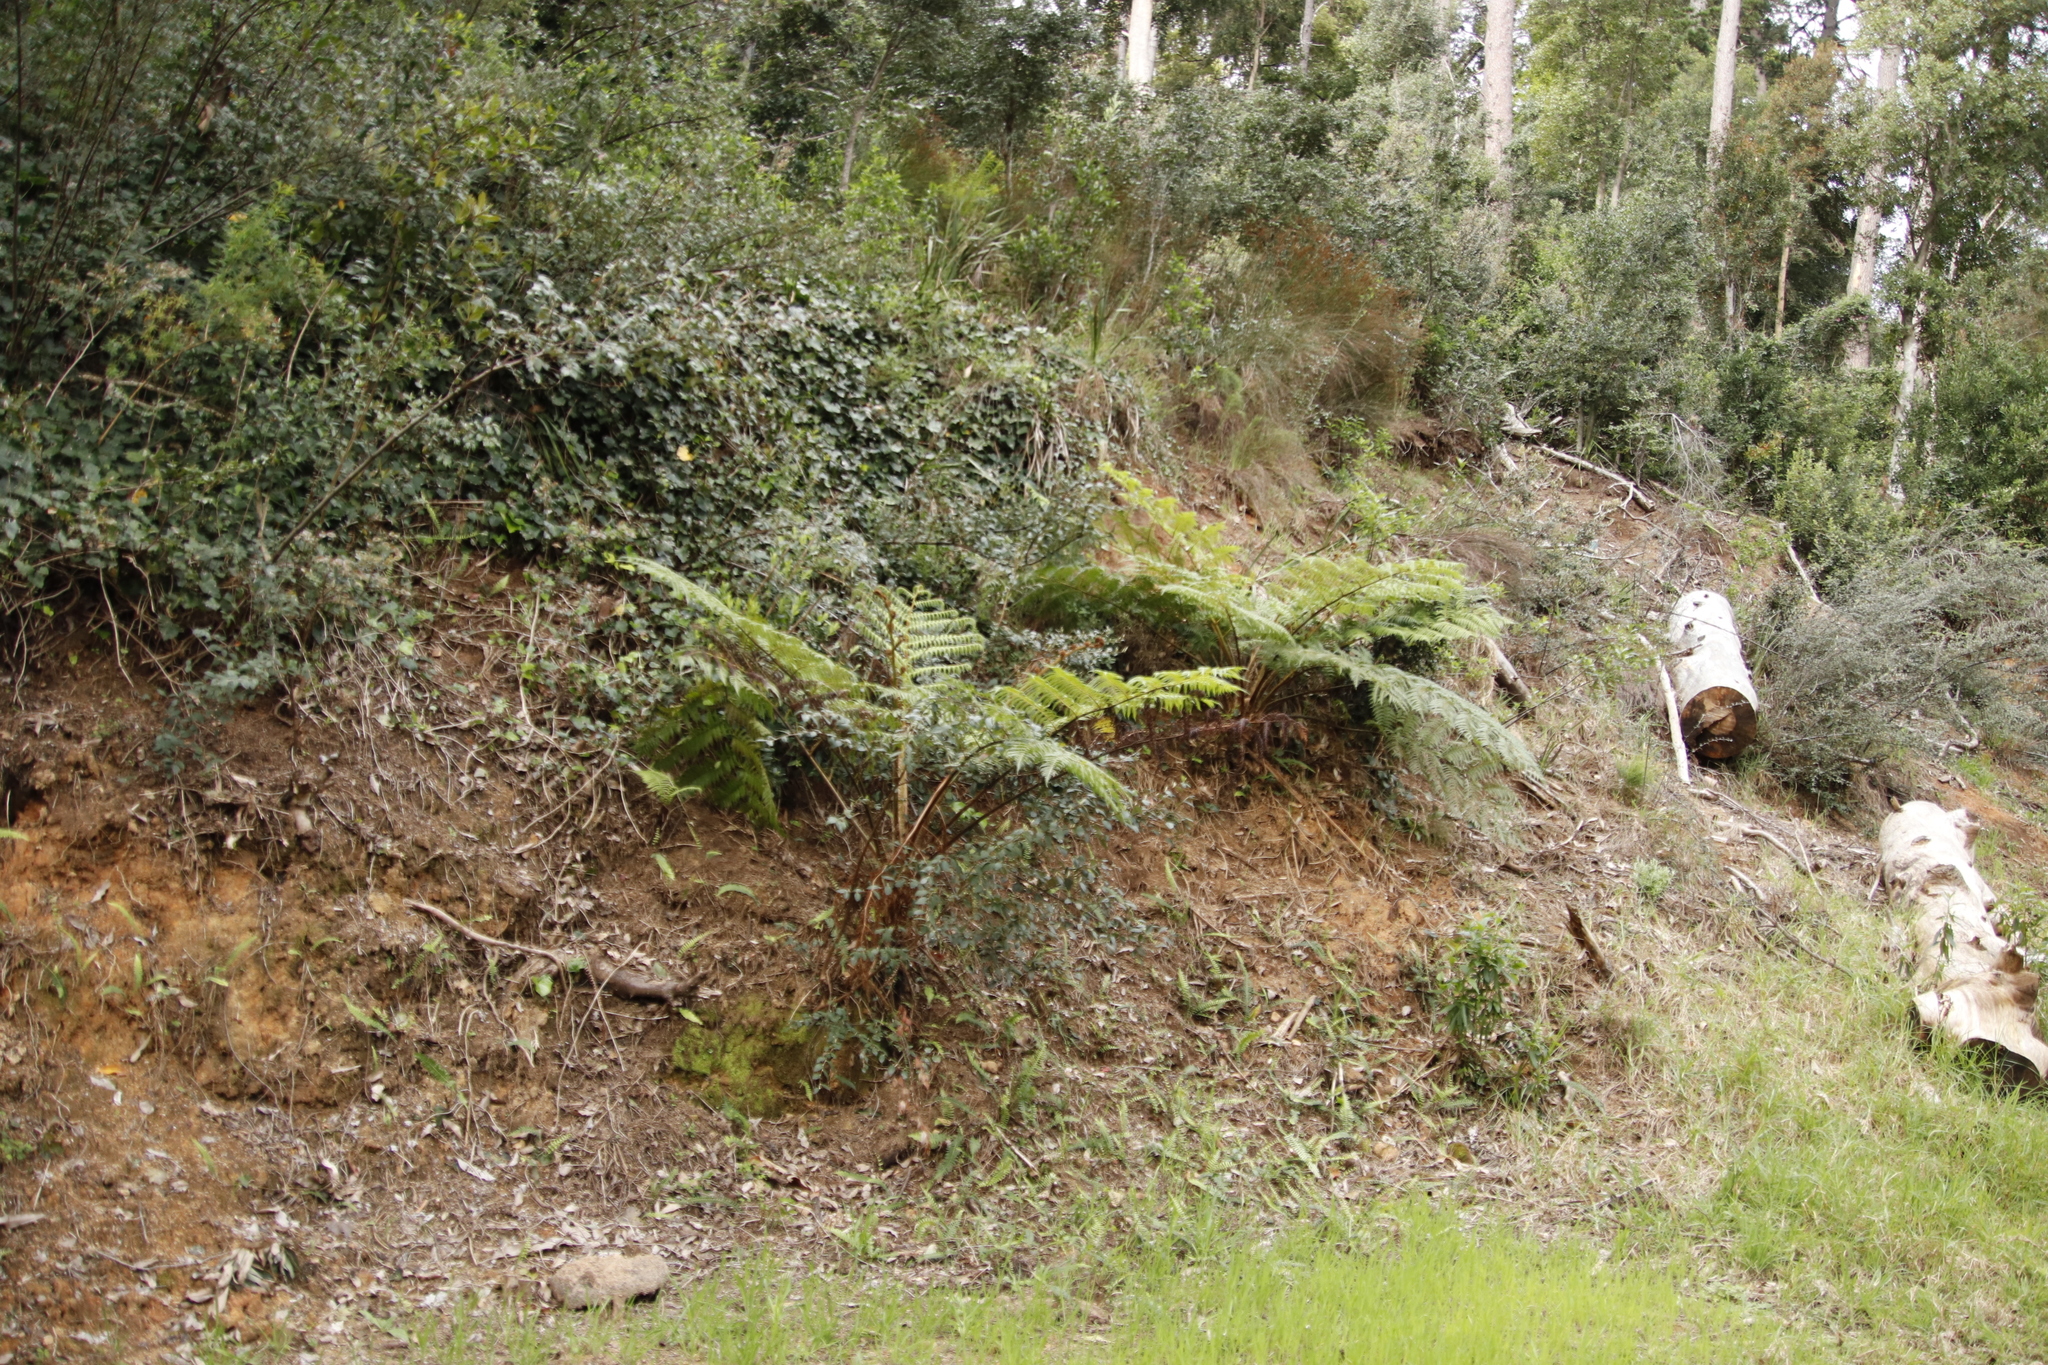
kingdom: Plantae
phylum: Tracheophyta
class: Polypodiopsida
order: Cyatheales
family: Cyatheaceae
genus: Sphaeropteris
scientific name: Sphaeropteris cooperi
